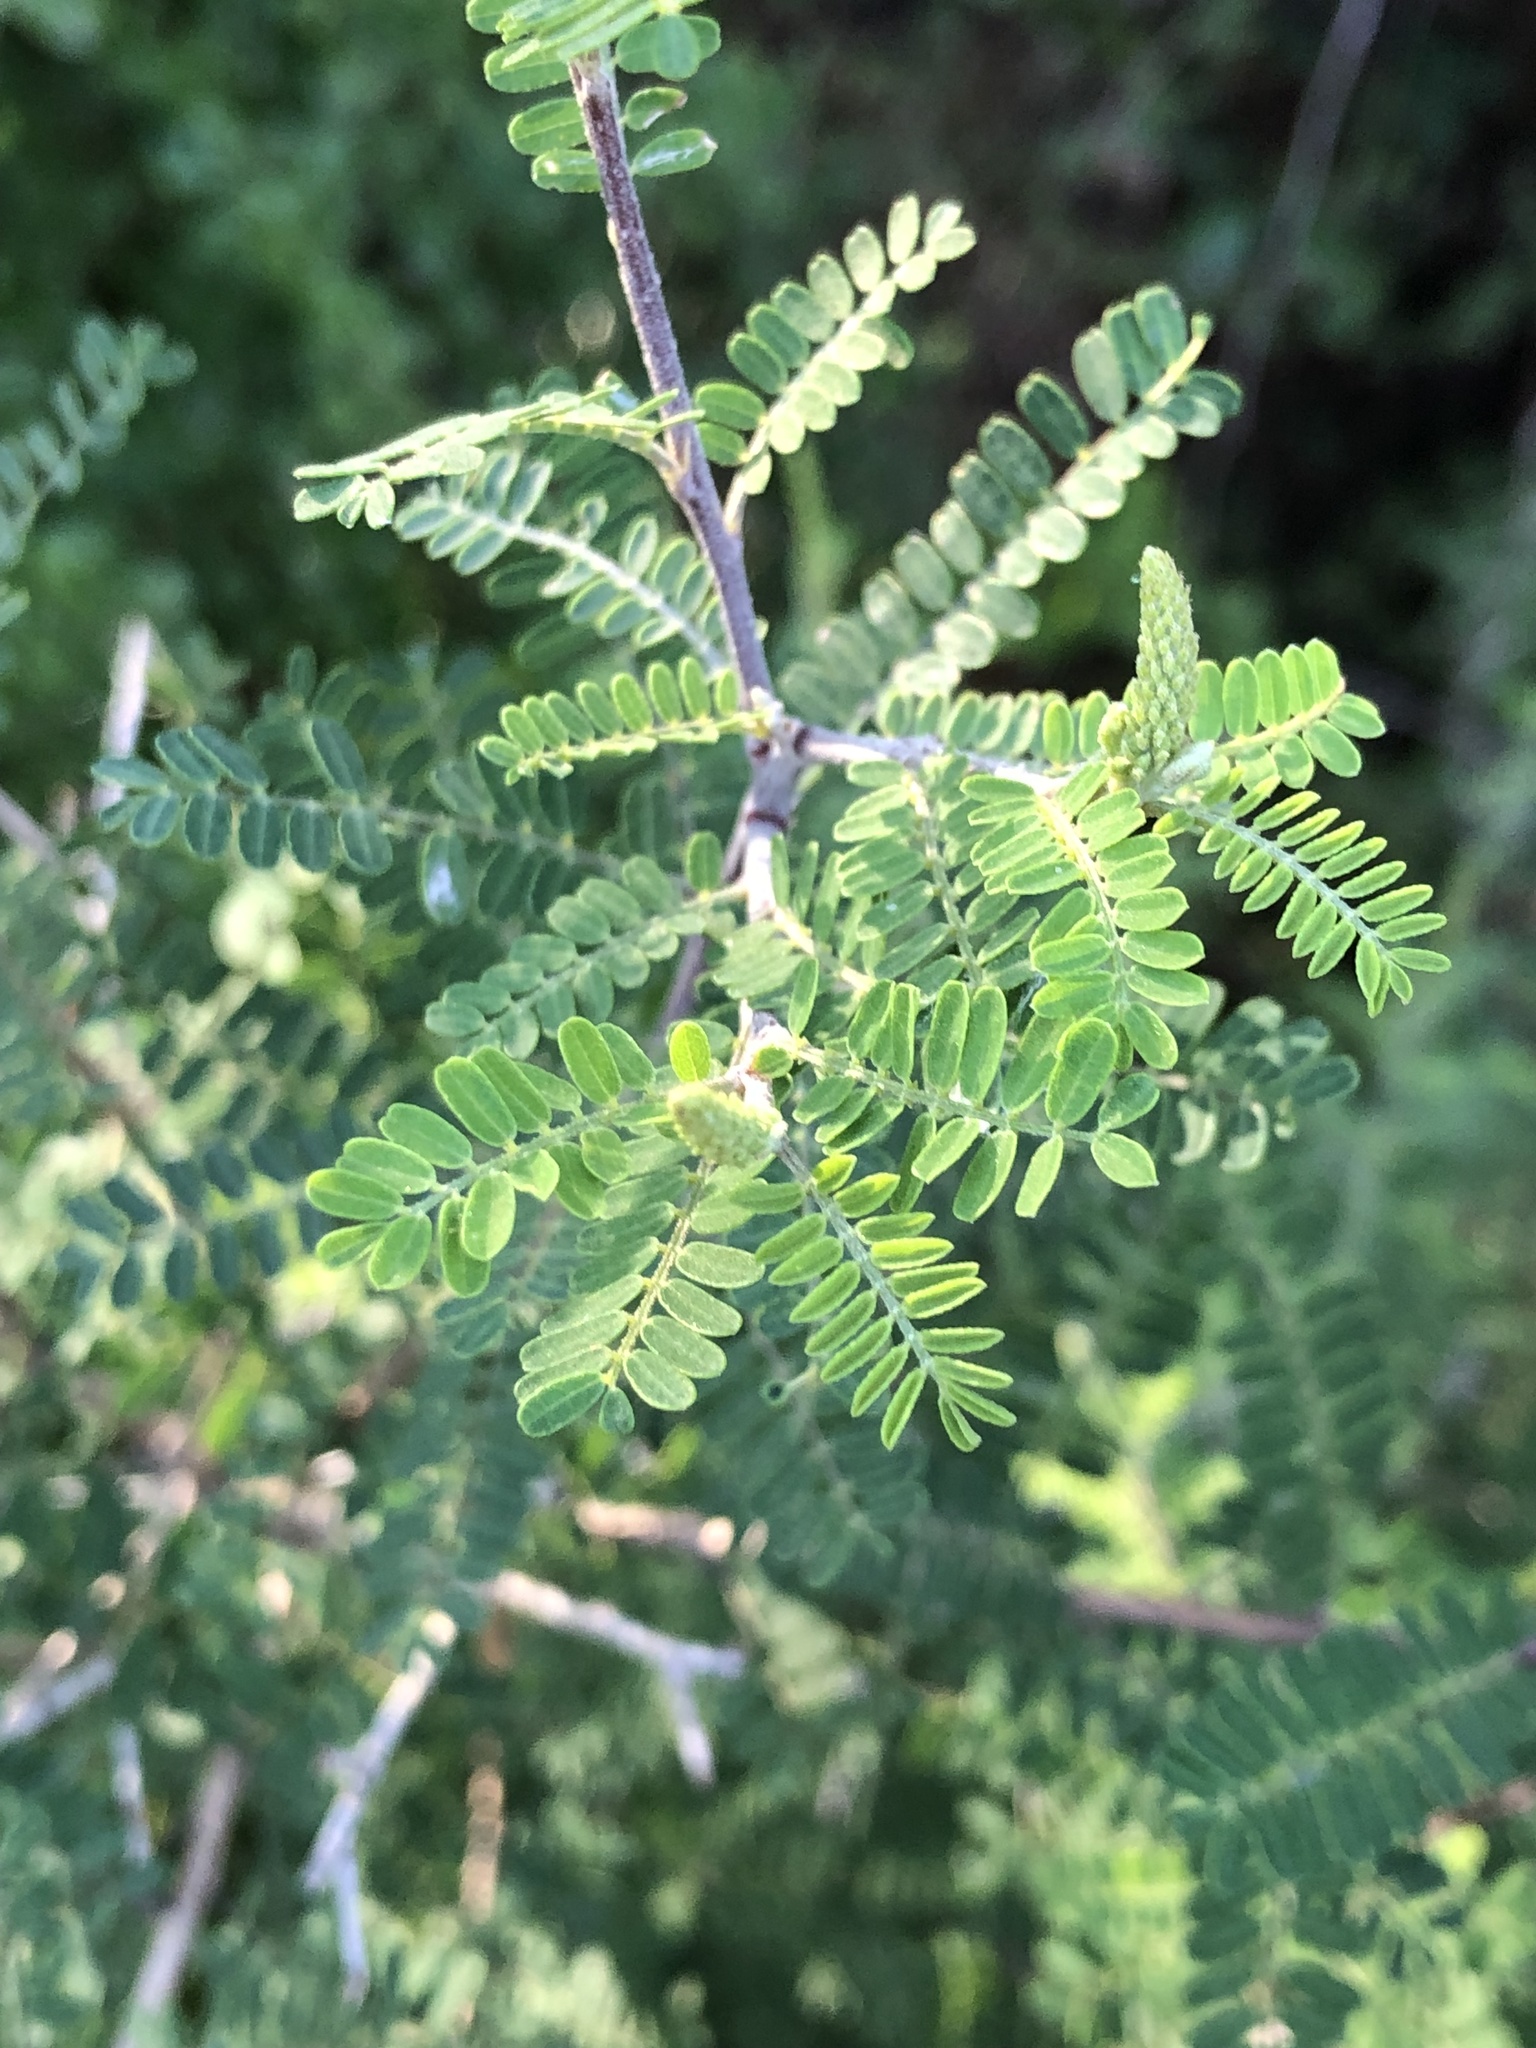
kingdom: Plantae
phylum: Tracheophyta
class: Magnoliopsida
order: Fabales
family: Fabaceae
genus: Eysenhardtia
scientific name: Eysenhardtia texana
